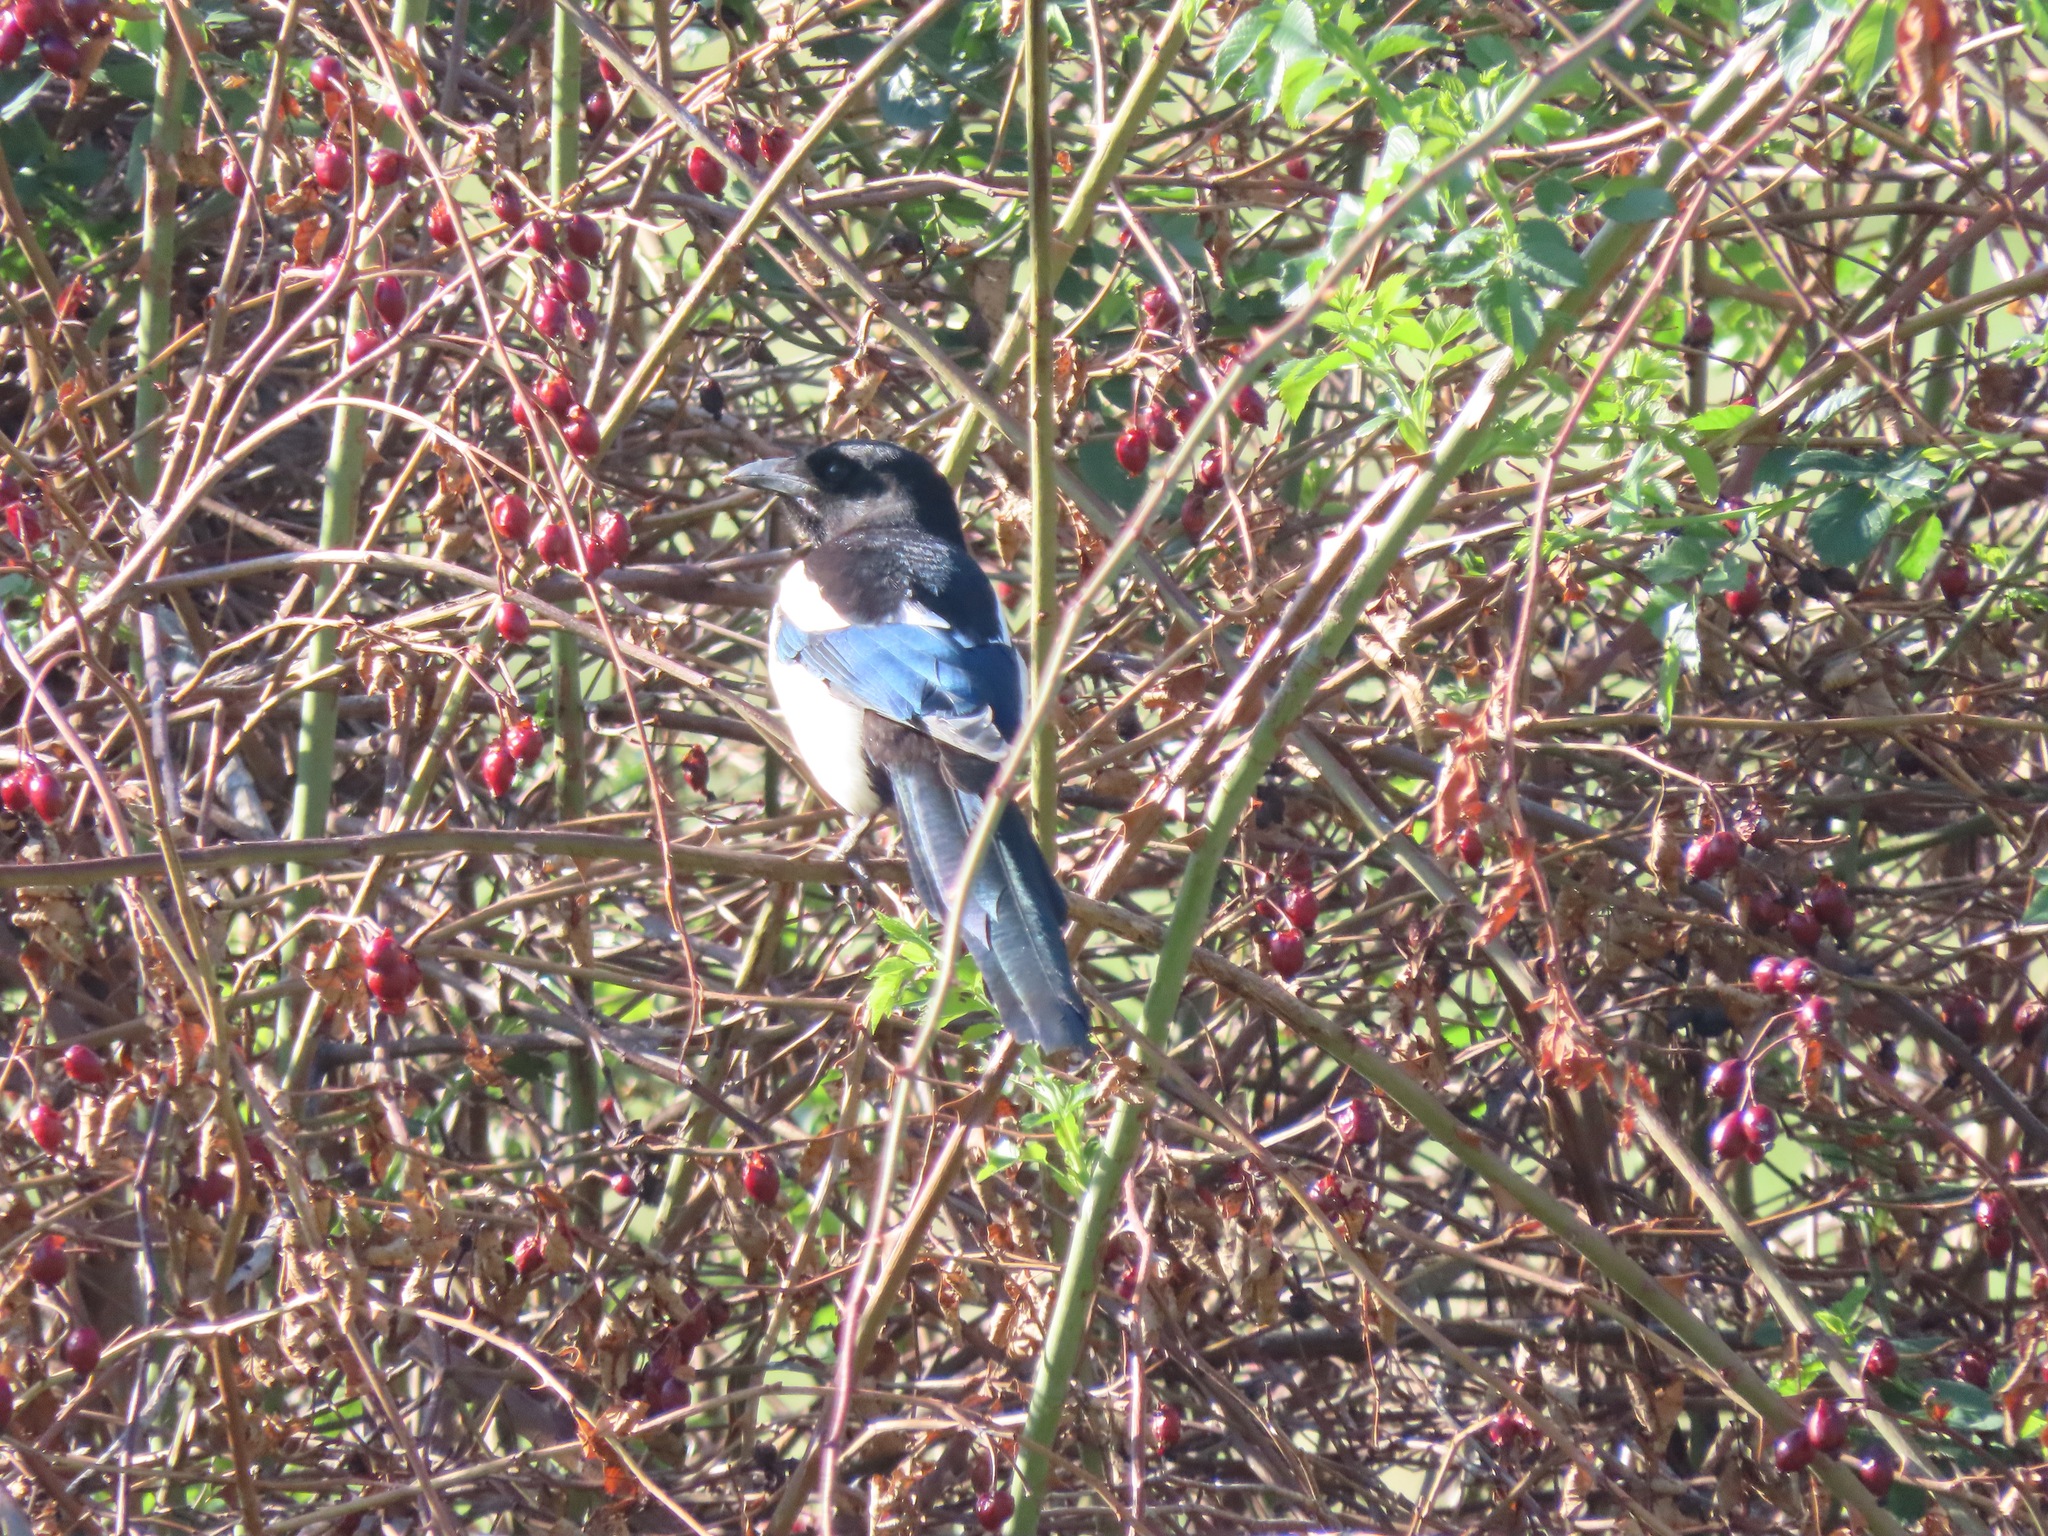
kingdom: Animalia
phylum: Chordata
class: Aves
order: Passeriformes
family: Corvidae
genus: Pica
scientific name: Pica hudsonia
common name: Black-billed magpie
